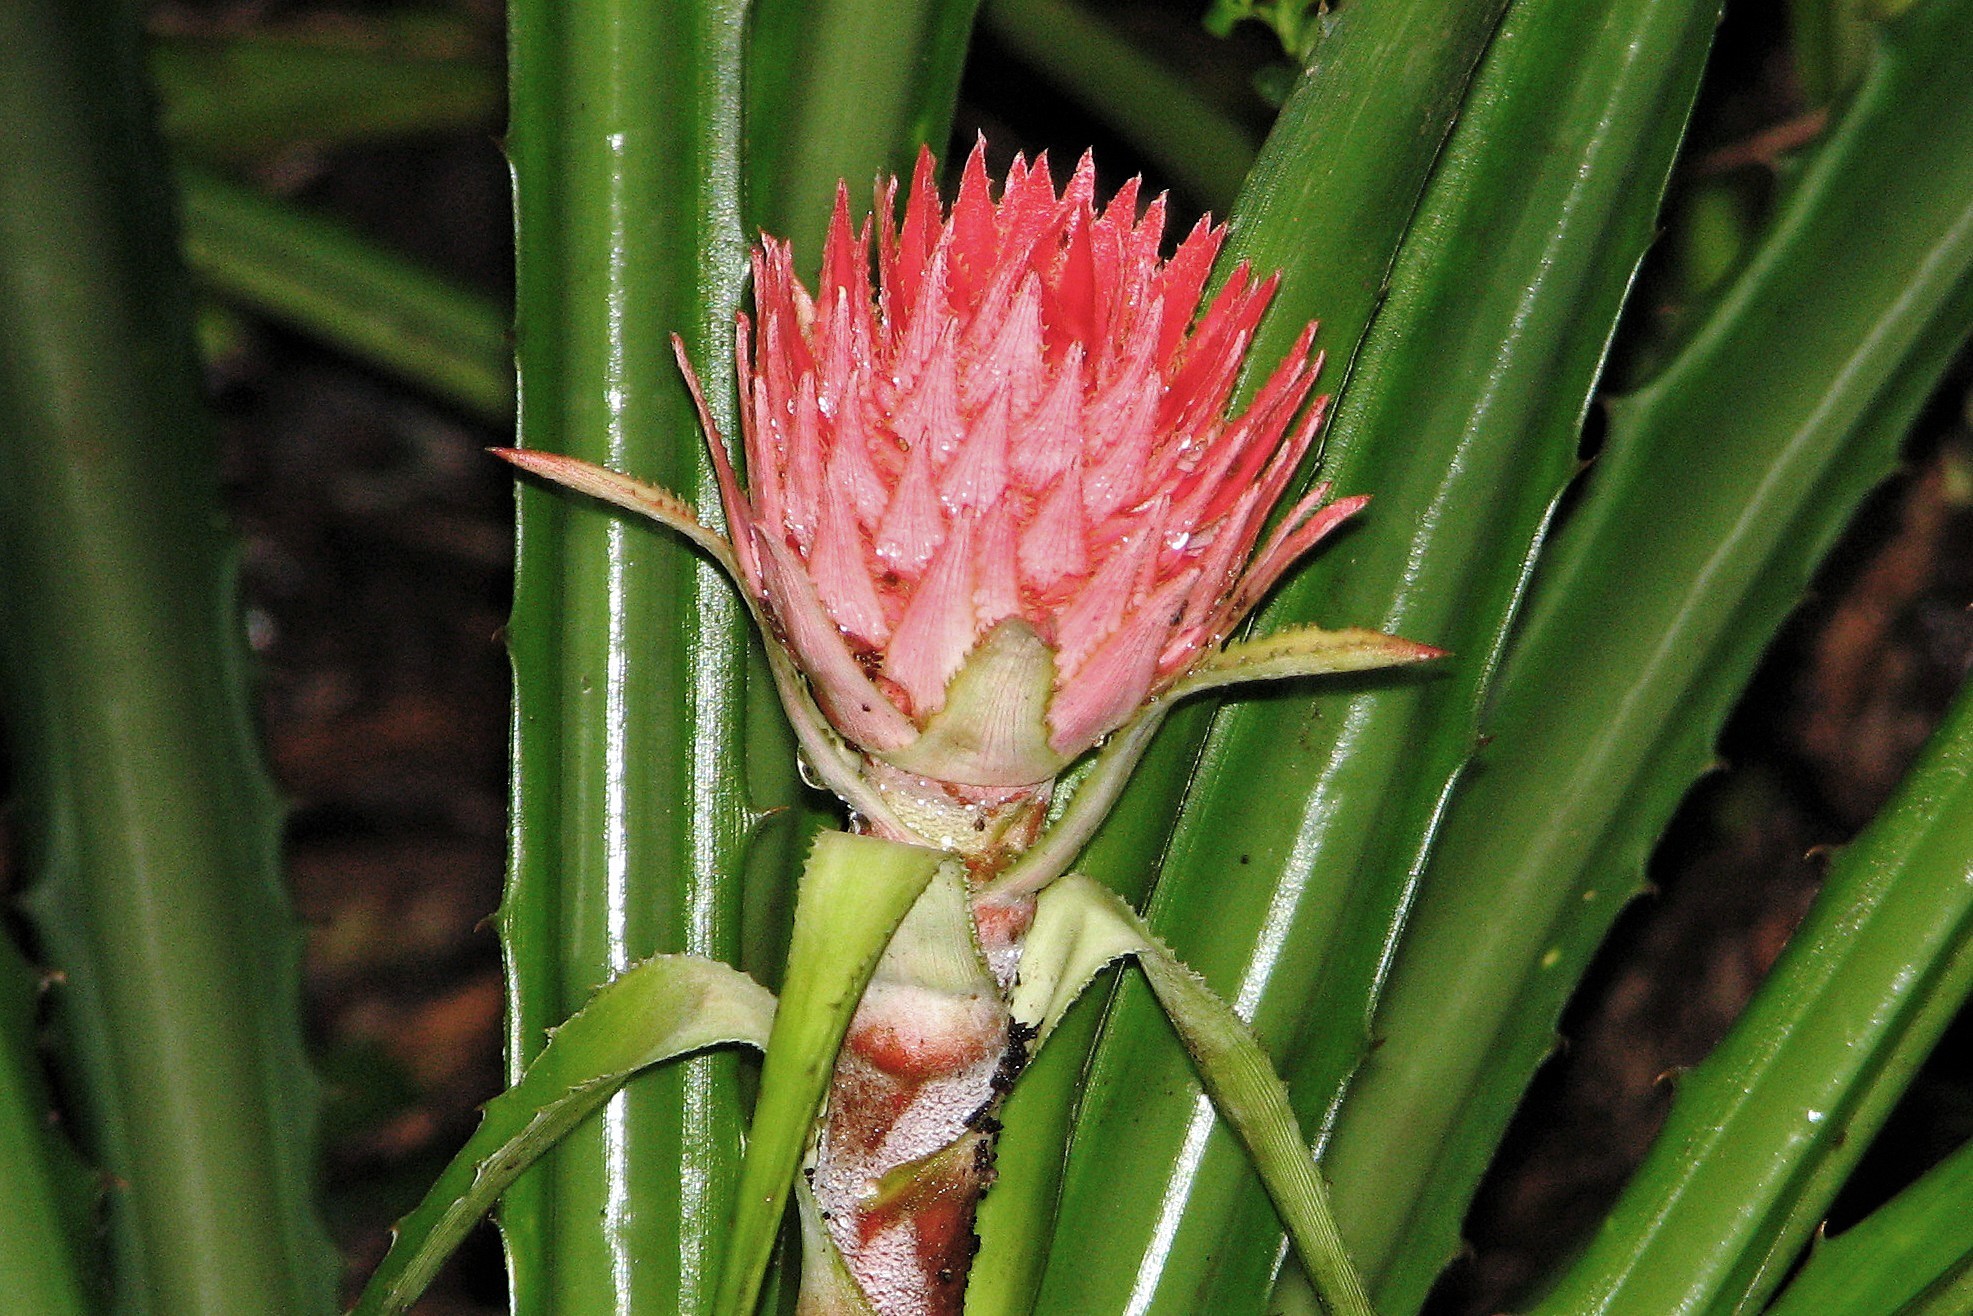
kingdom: Plantae
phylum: Tracheophyta
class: Liliopsida
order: Poales
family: Bromeliaceae
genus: Ananas
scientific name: Ananas macrodontes
